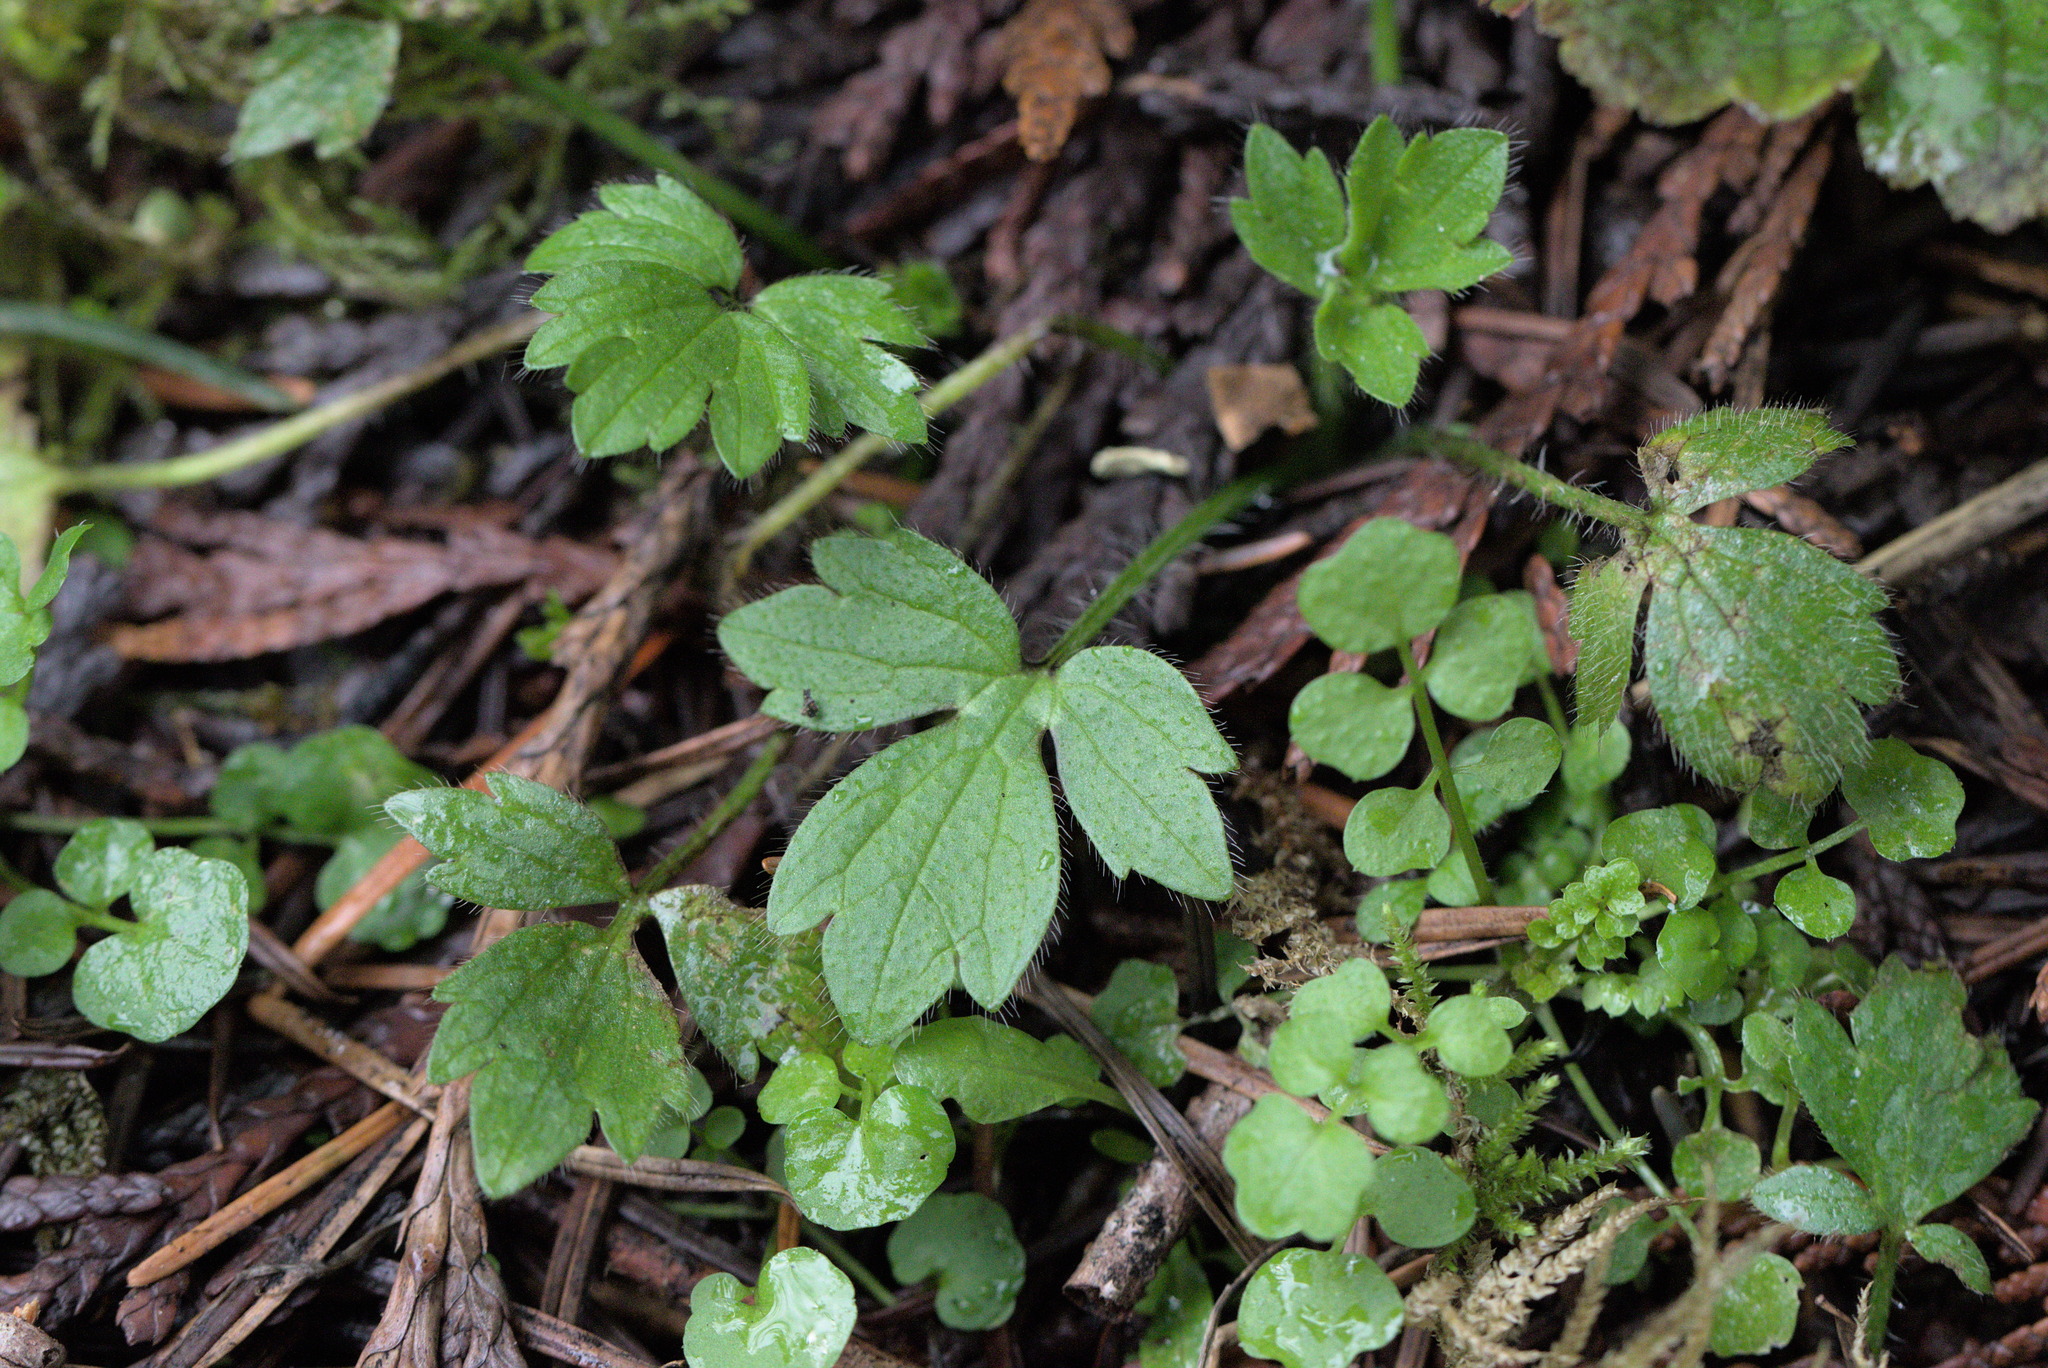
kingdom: Plantae
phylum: Tracheophyta
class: Magnoliopsida
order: Ranunculales
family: Ranunculaceae
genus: Ranunculus
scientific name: Ranunculus repens
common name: Creeping buttercup
